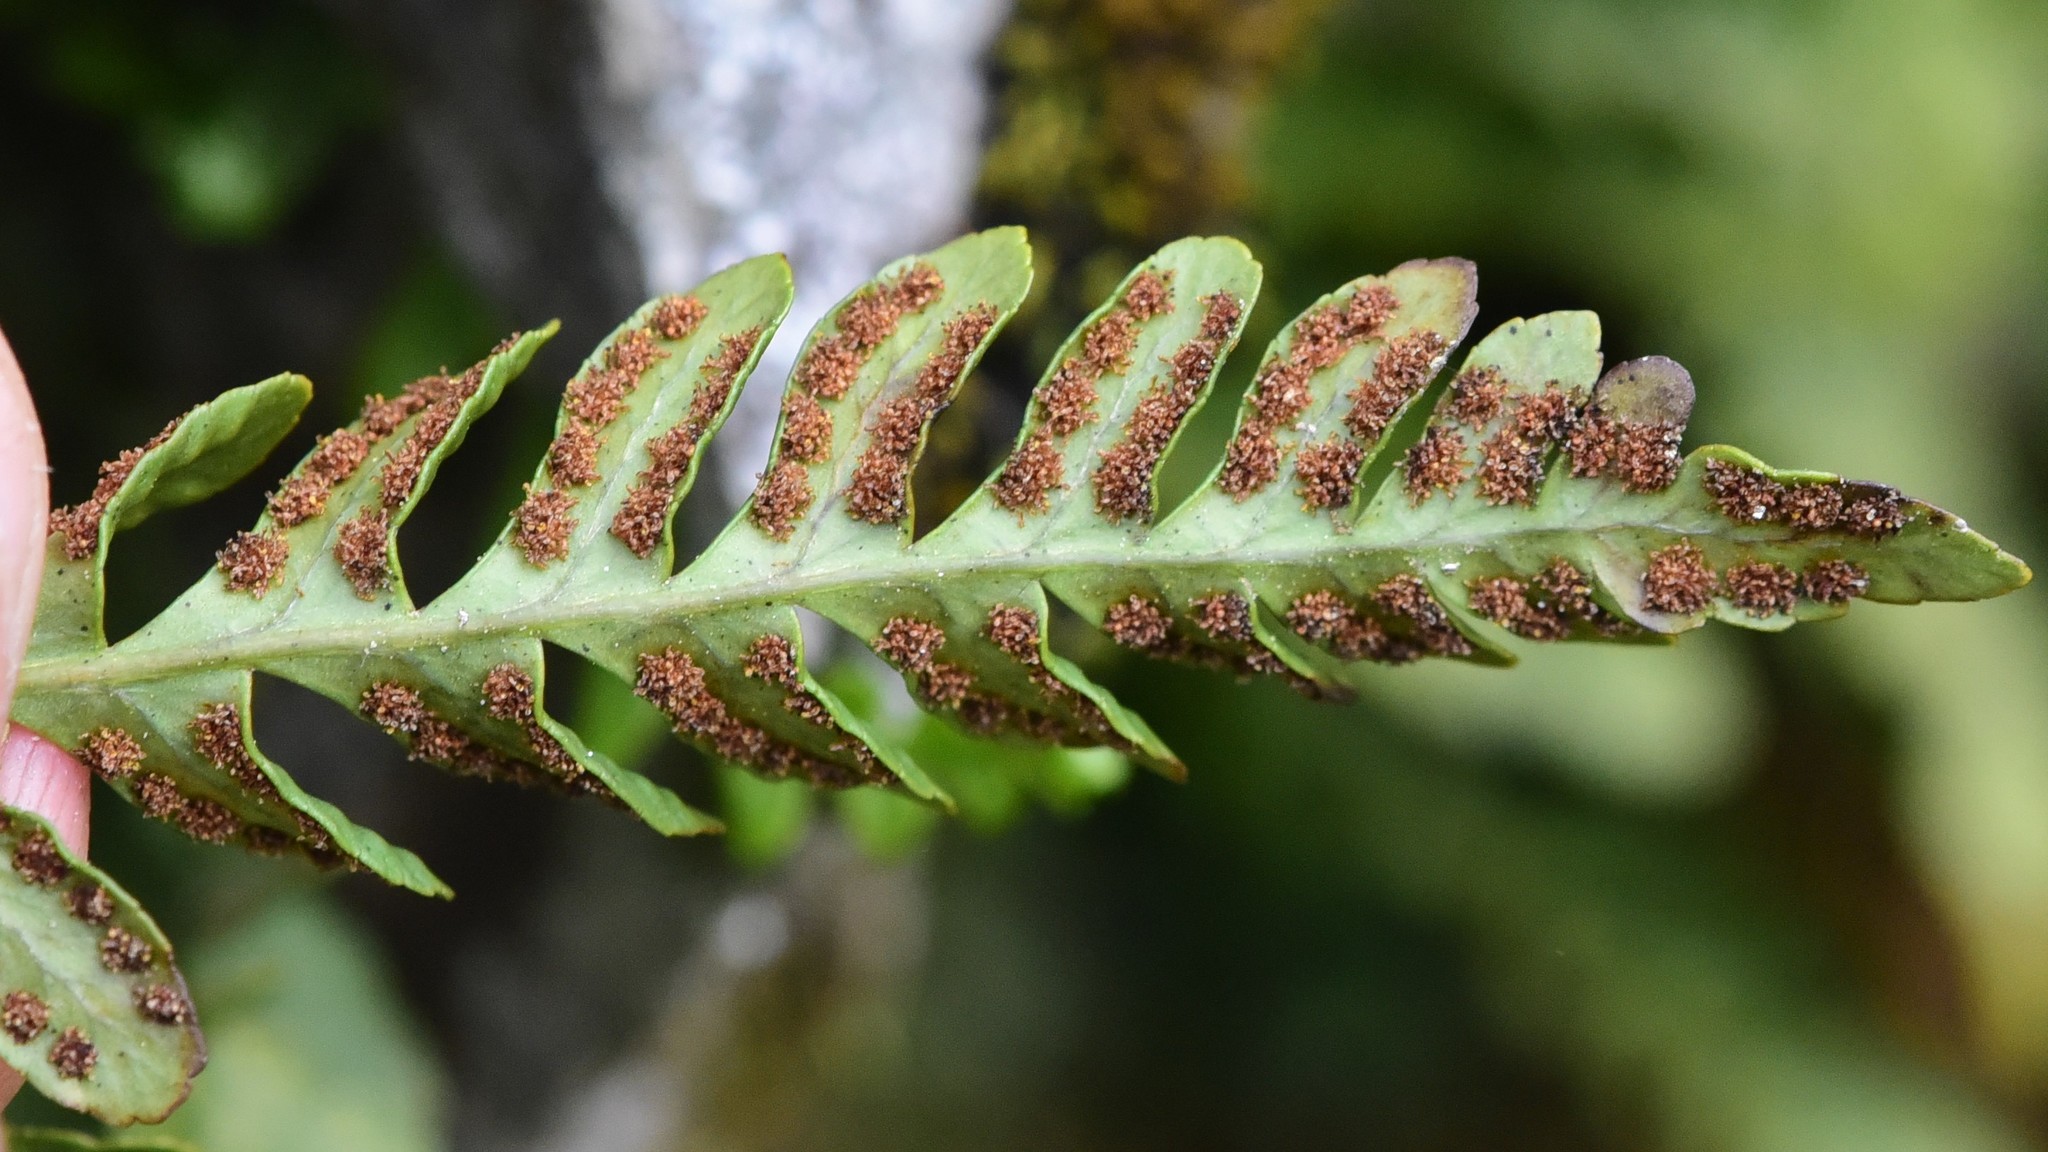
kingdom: Plantae
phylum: Tracheophyta
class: Polypodiopsida
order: Polypodiales
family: Polypodiaceae
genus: Polypodium
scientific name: Polypodium amorphum
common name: Pacific polypody
